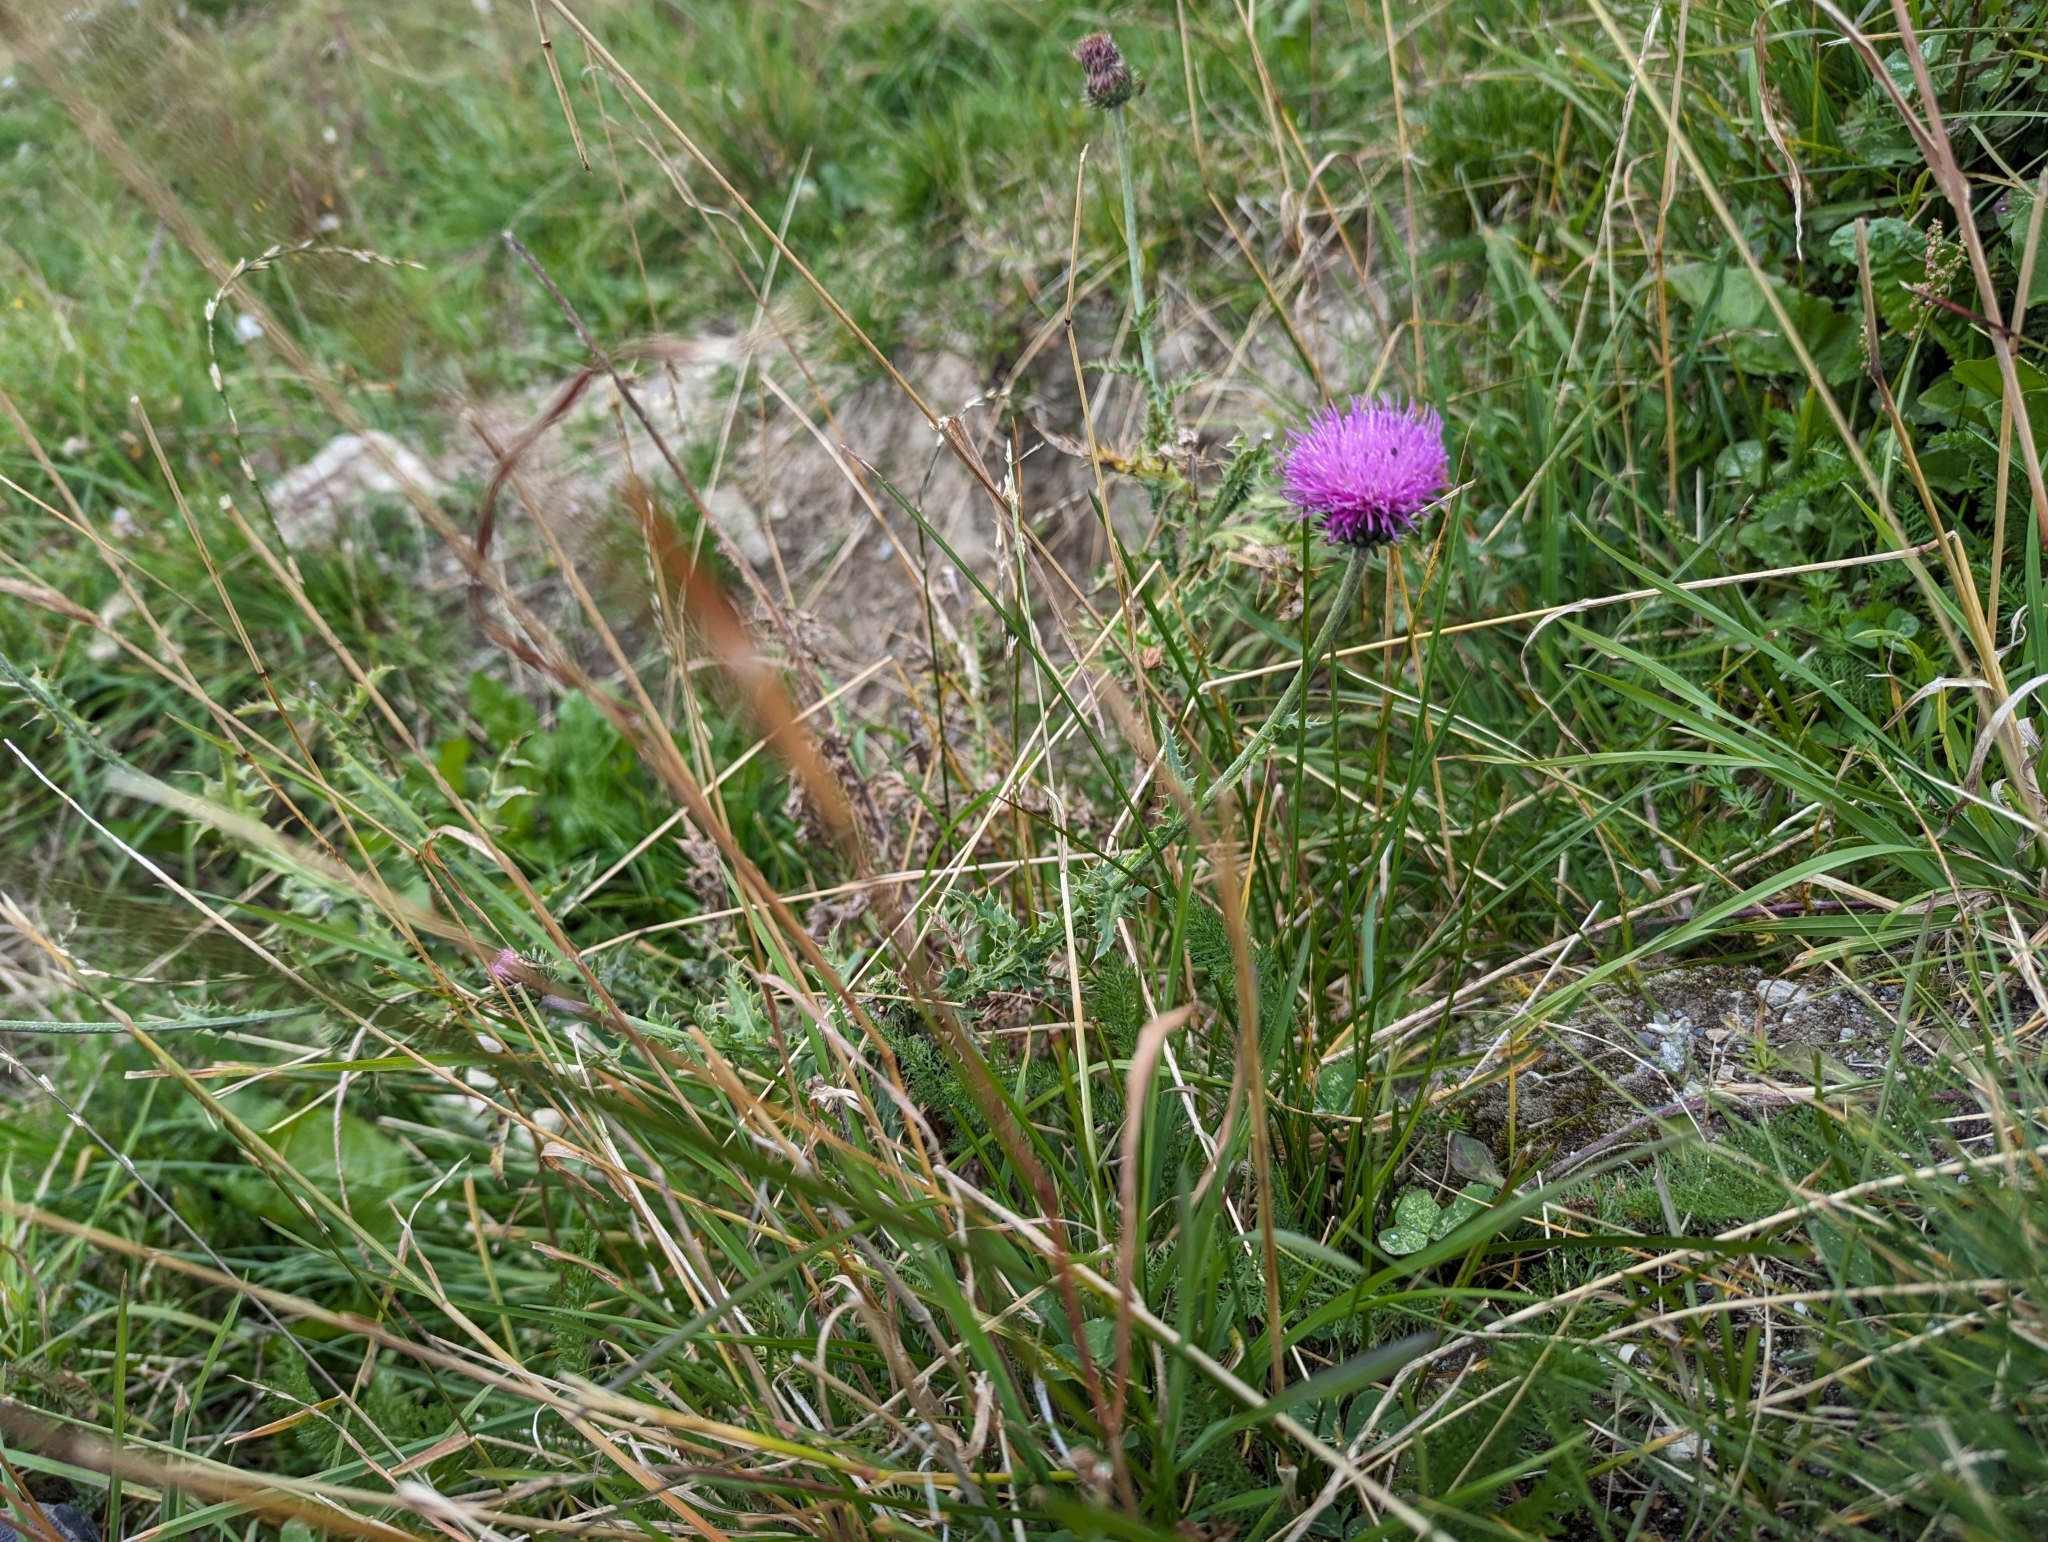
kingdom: Plantae
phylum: Tracheophyta
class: Magnoliopsida
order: Asterales
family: Asteraceae
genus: Carduus
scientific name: Carduus defloratus
